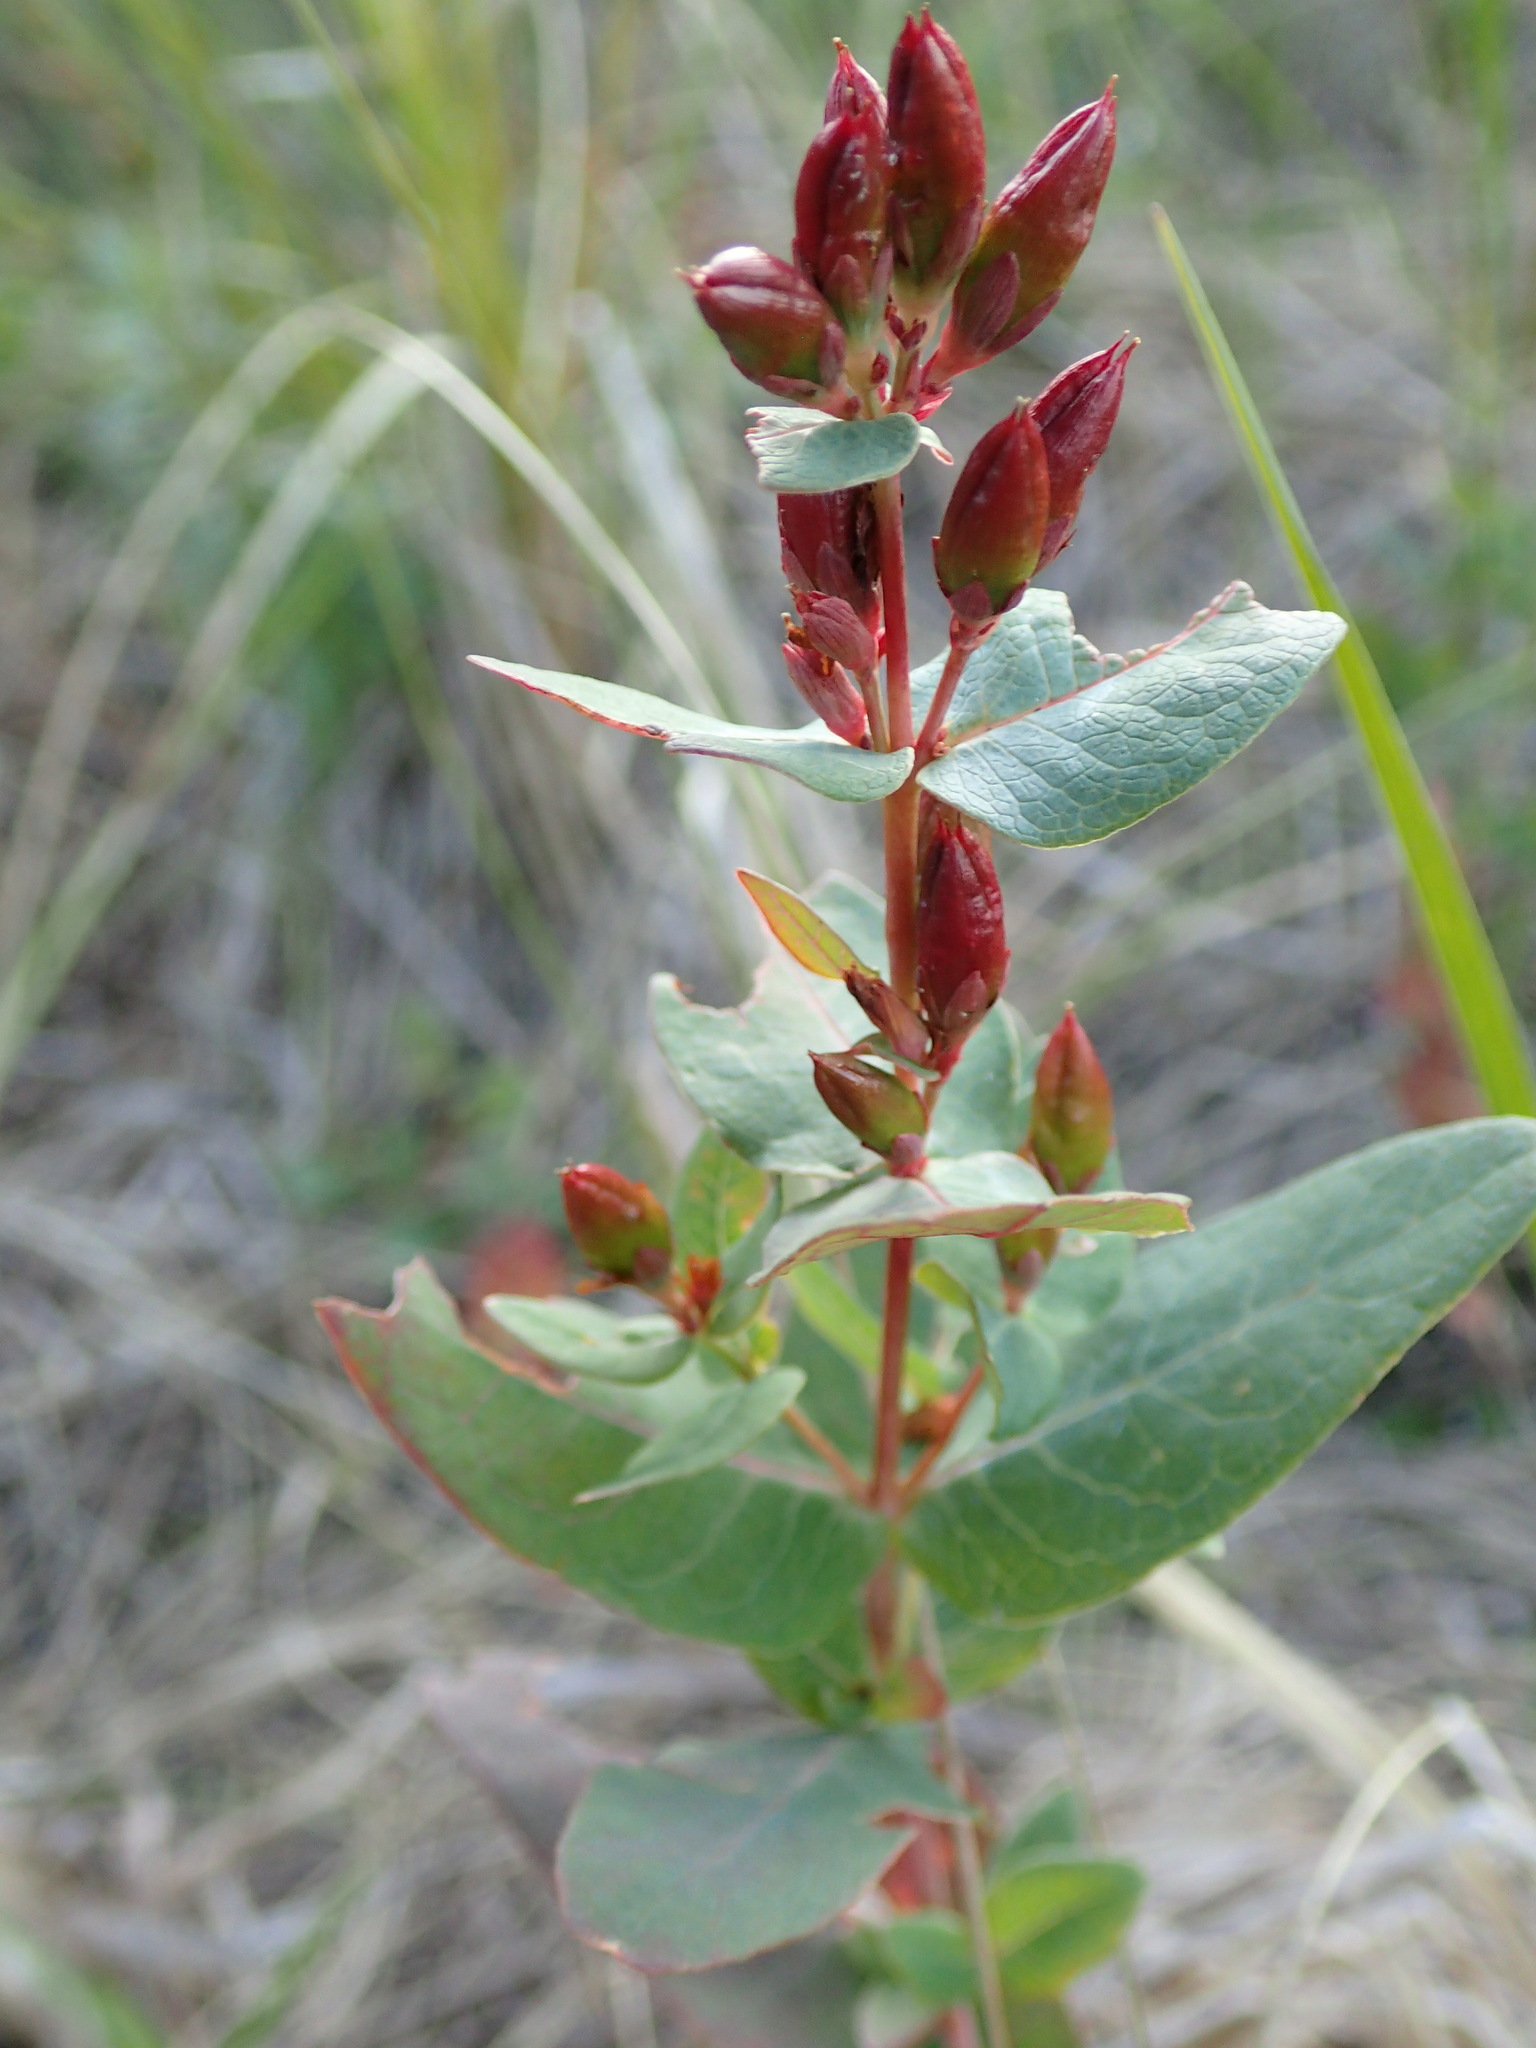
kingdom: Plantae
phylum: Tracheophyta
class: Magnoliopsida
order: Malpighiales
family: Hypericaceae
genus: Triadenum
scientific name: Triadenum fraseri
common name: Fraser's marsh st. johnswort
